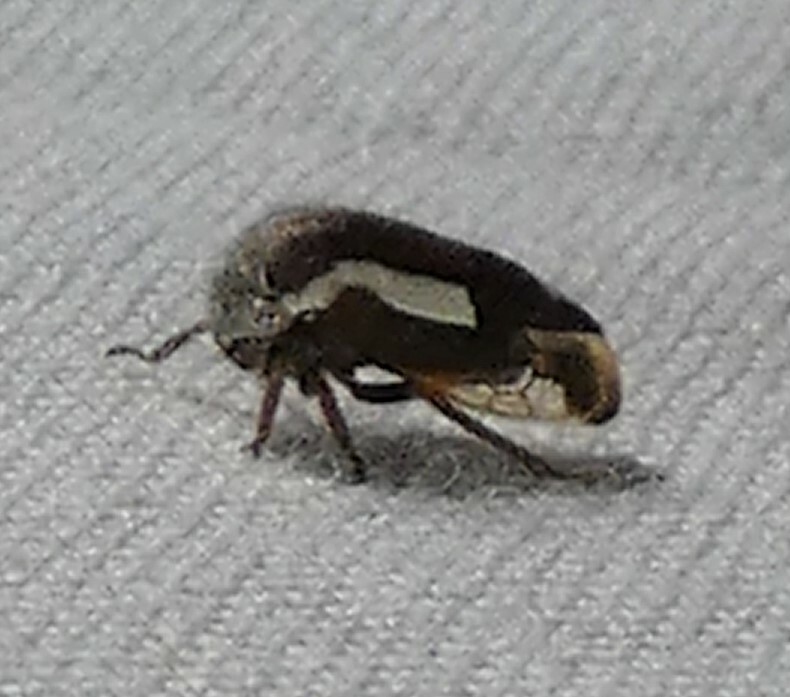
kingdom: Animalia
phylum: Arthropoda
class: Insecta
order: Hemiptera
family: Membracidae
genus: Ophiderma
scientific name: Ophiderma flavicephala
